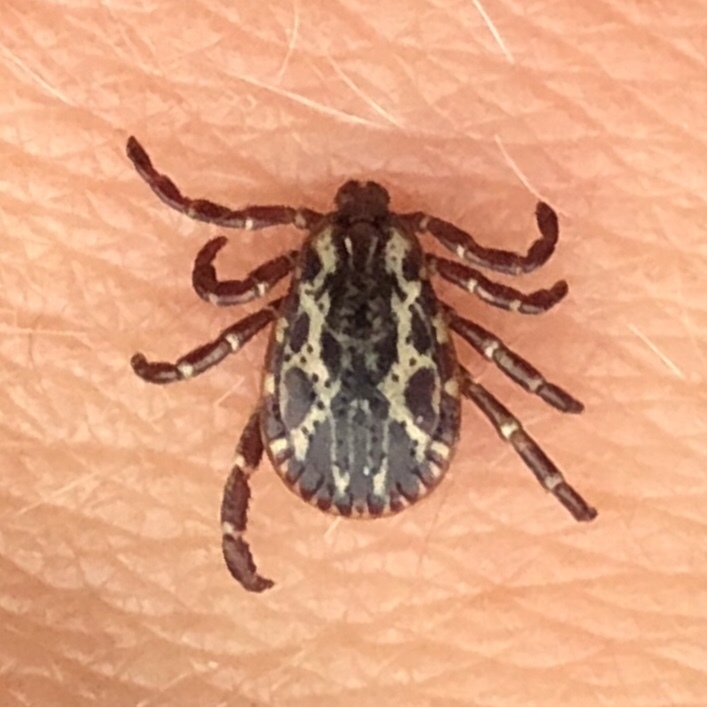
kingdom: Animalia
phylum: Arthropoda
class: Arachnida
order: Ixodida
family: Ixodidae
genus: Dermacentor
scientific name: Dermacentor variabilis
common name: American dog tick
